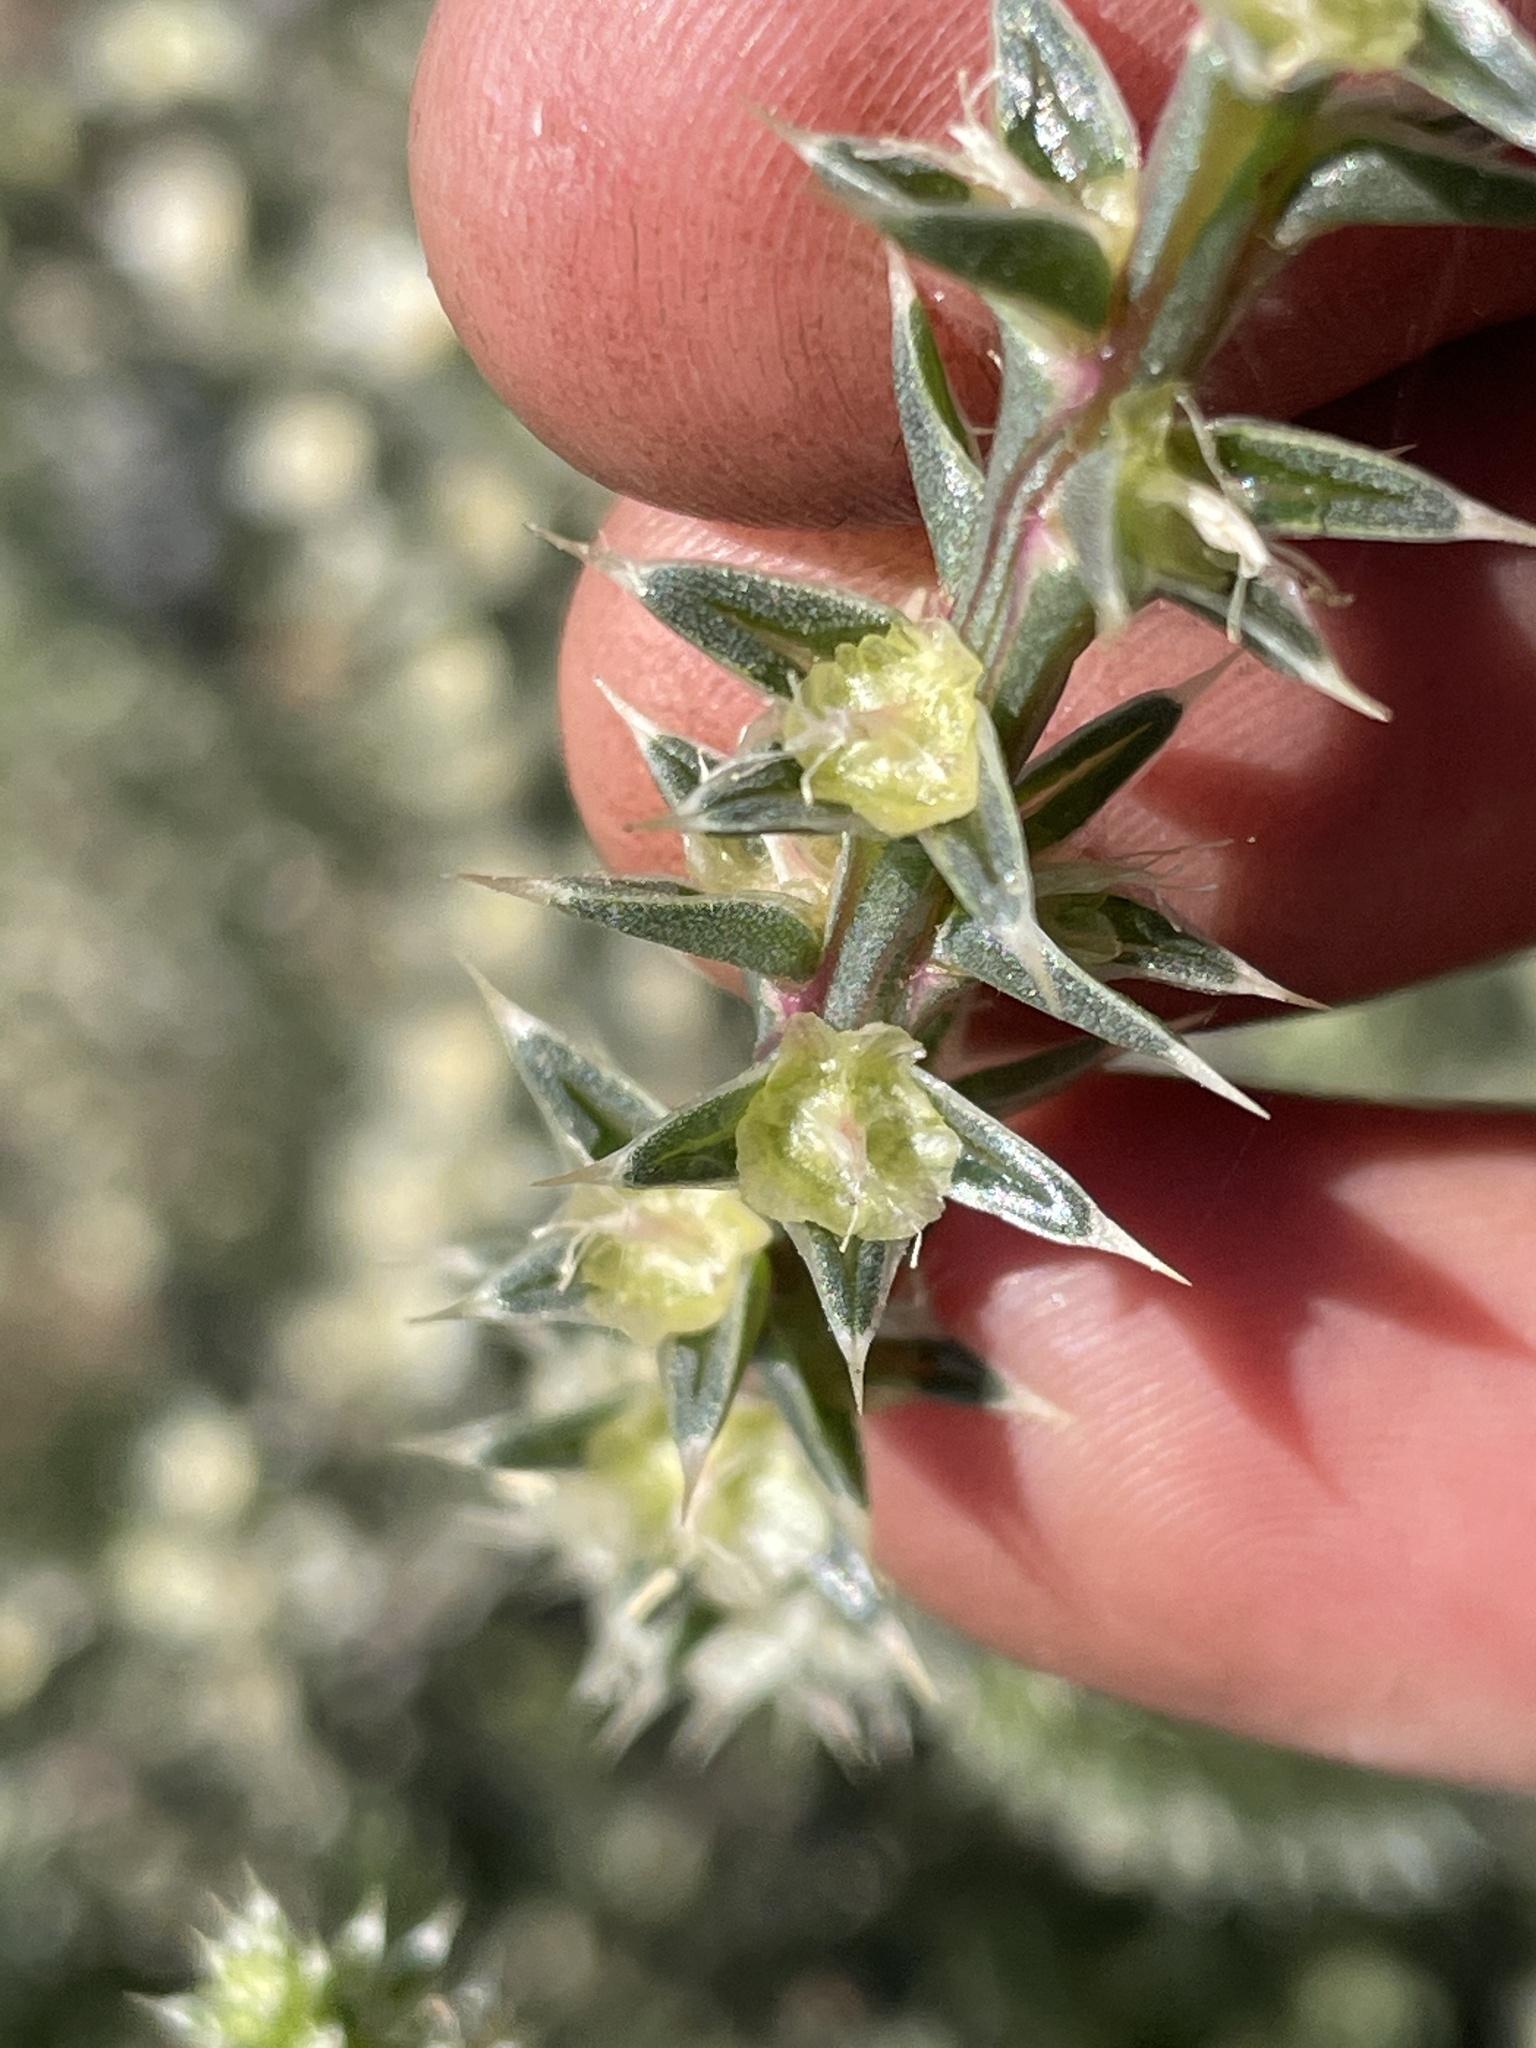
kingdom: Plantae
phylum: Tracheophyta
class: Magnoliopsida
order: Caryophyllales
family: Amaranthaceae
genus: Salsola
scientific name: Salsola tragus
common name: Prickly russian thistle
